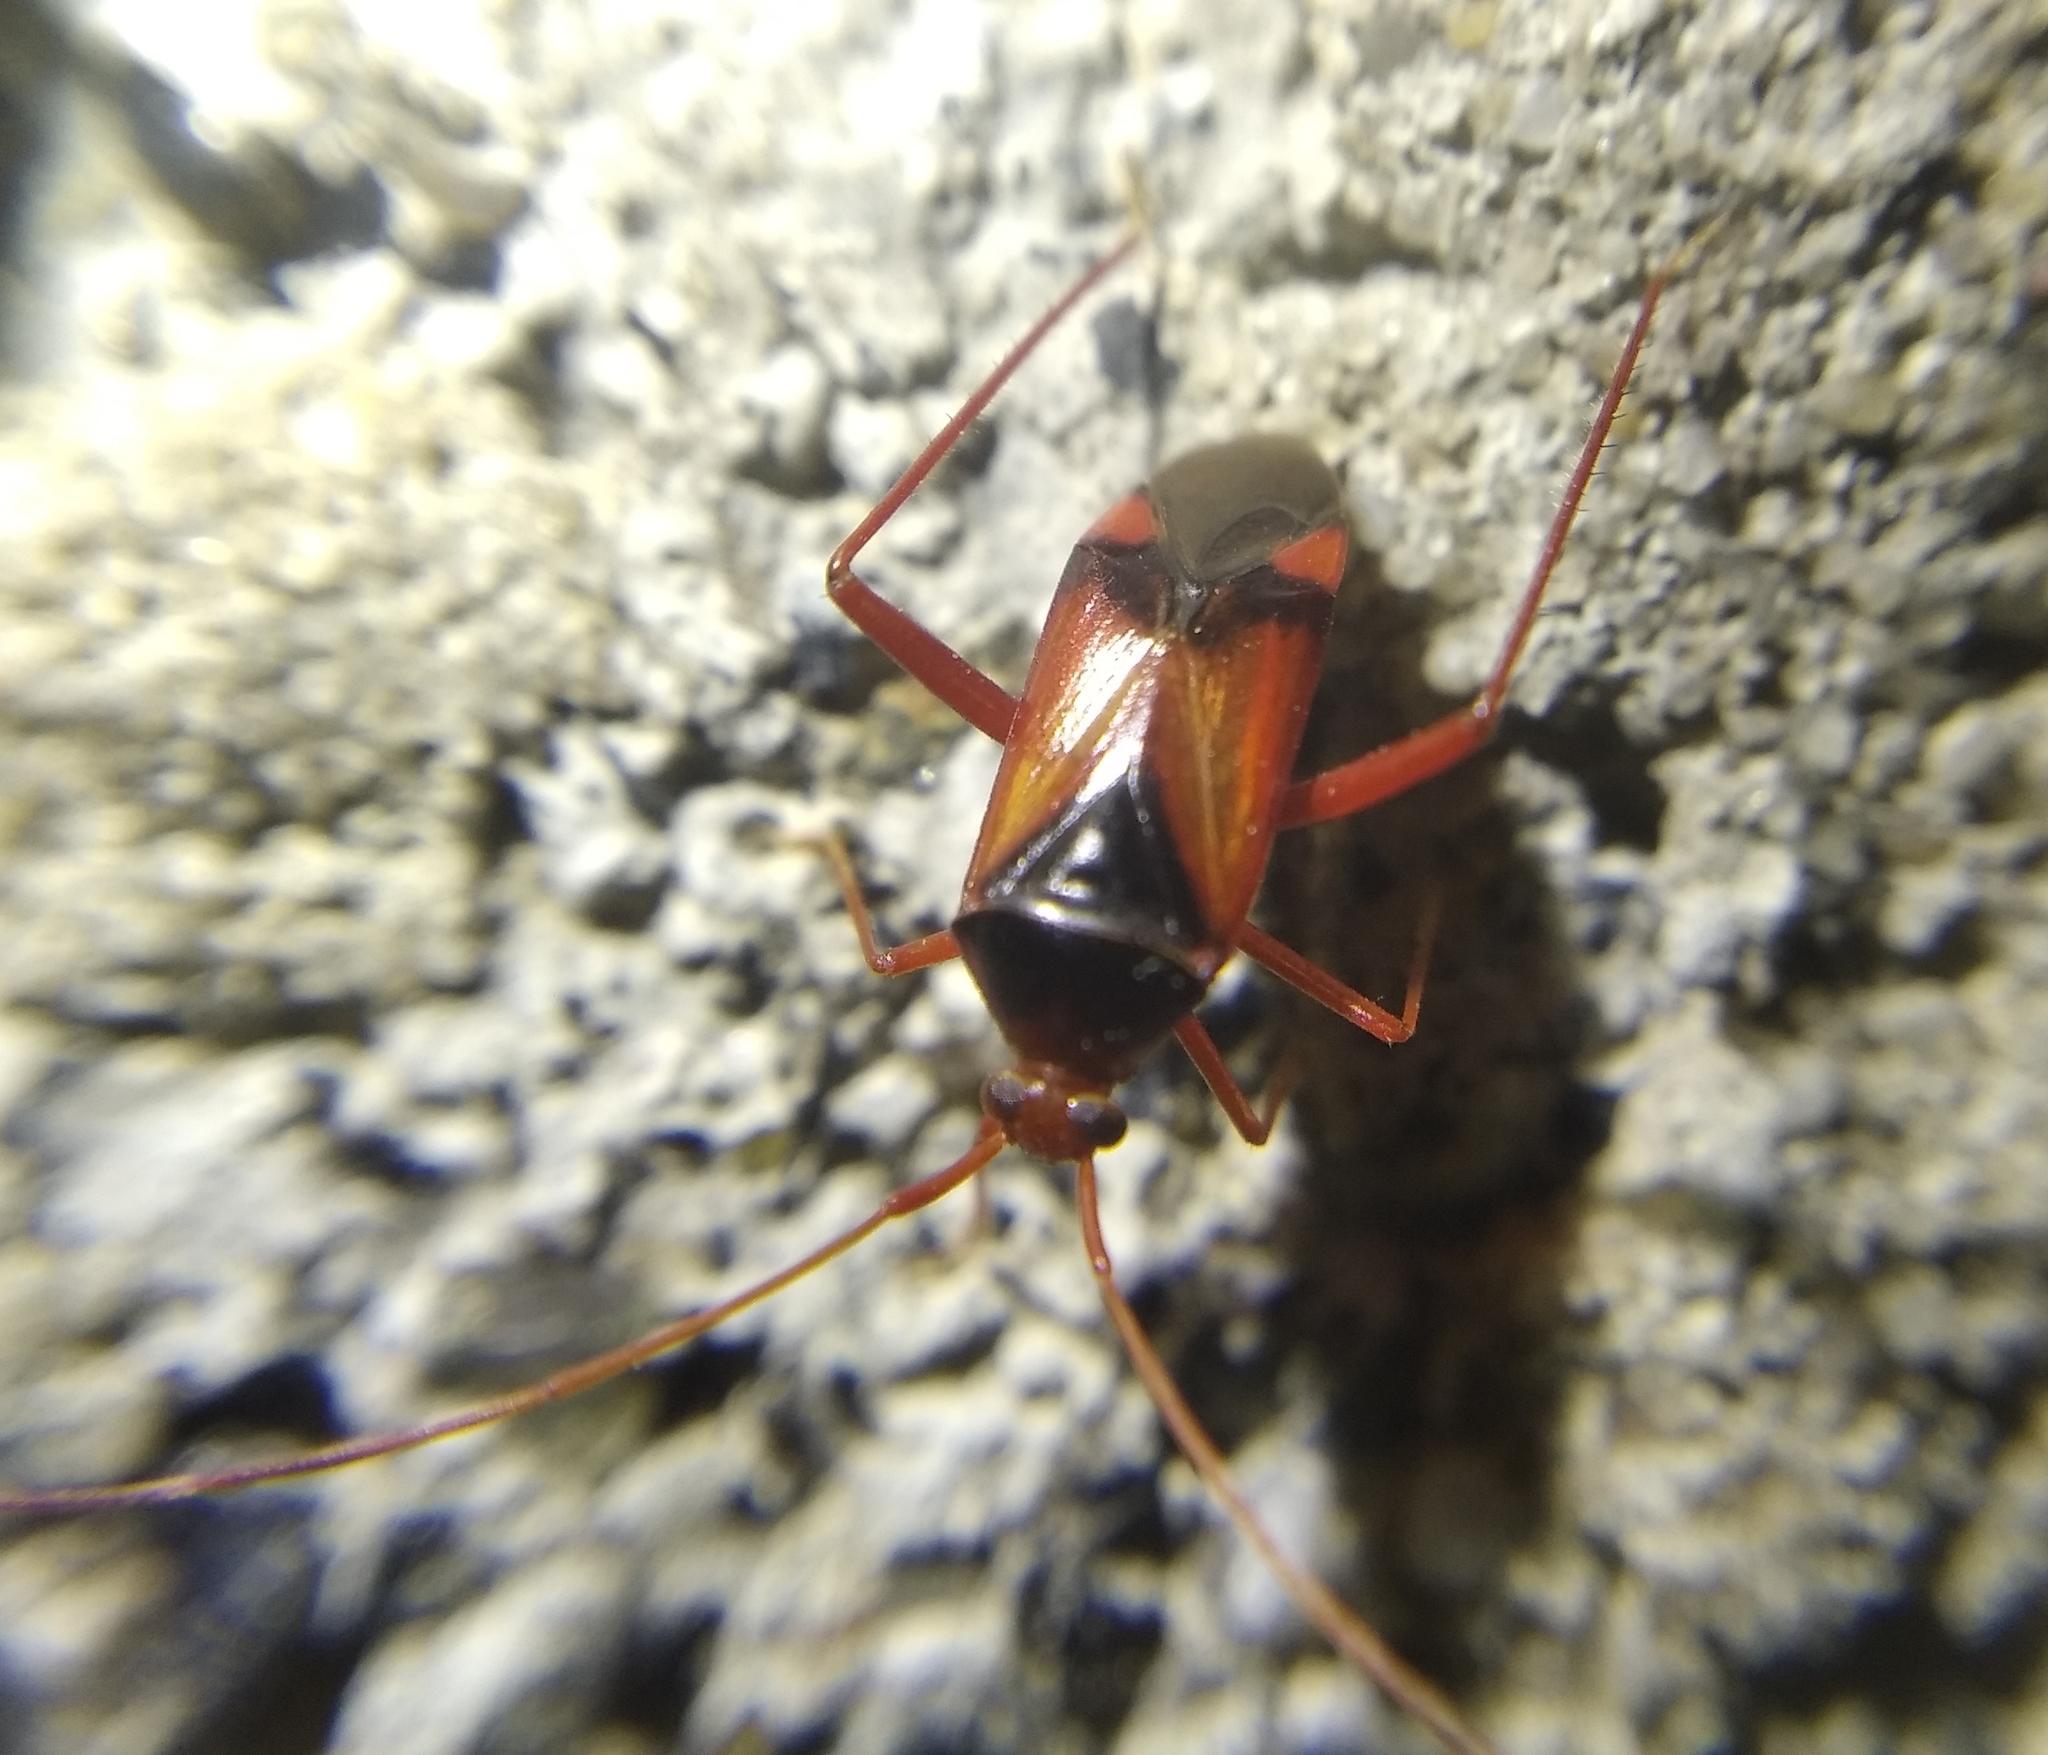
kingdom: Animalia
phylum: Arthropoda
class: Insecta
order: Hemiptera
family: Miridae
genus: Megacoelum
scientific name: Megacoelum beckeri
